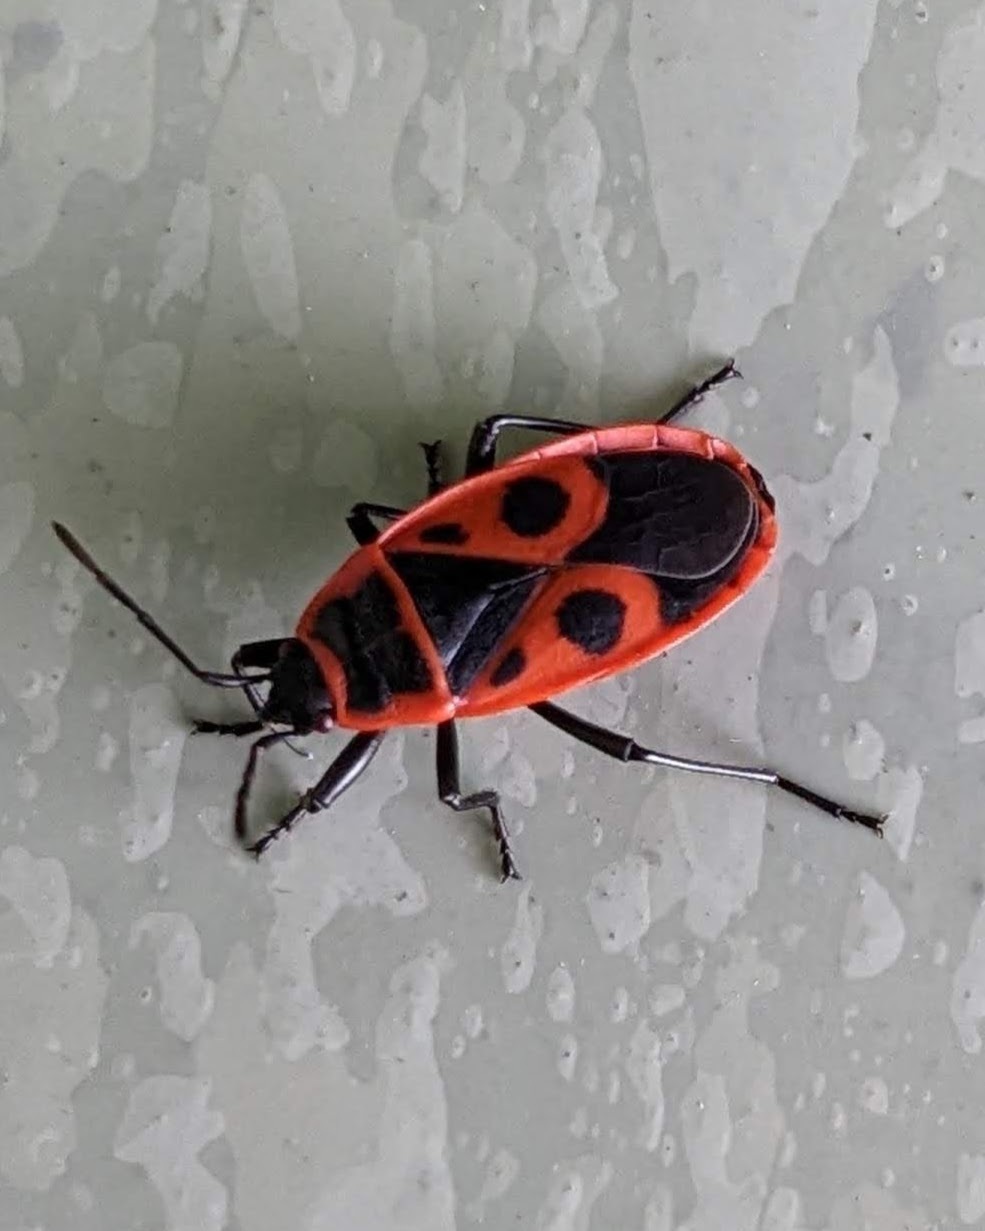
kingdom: Animalia
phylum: Arthropoda
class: Insecta
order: Hemiptera
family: Pyrrhocoridae
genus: Pyrrhocoris
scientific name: Pyrrhocoris apterus
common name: Firebug
